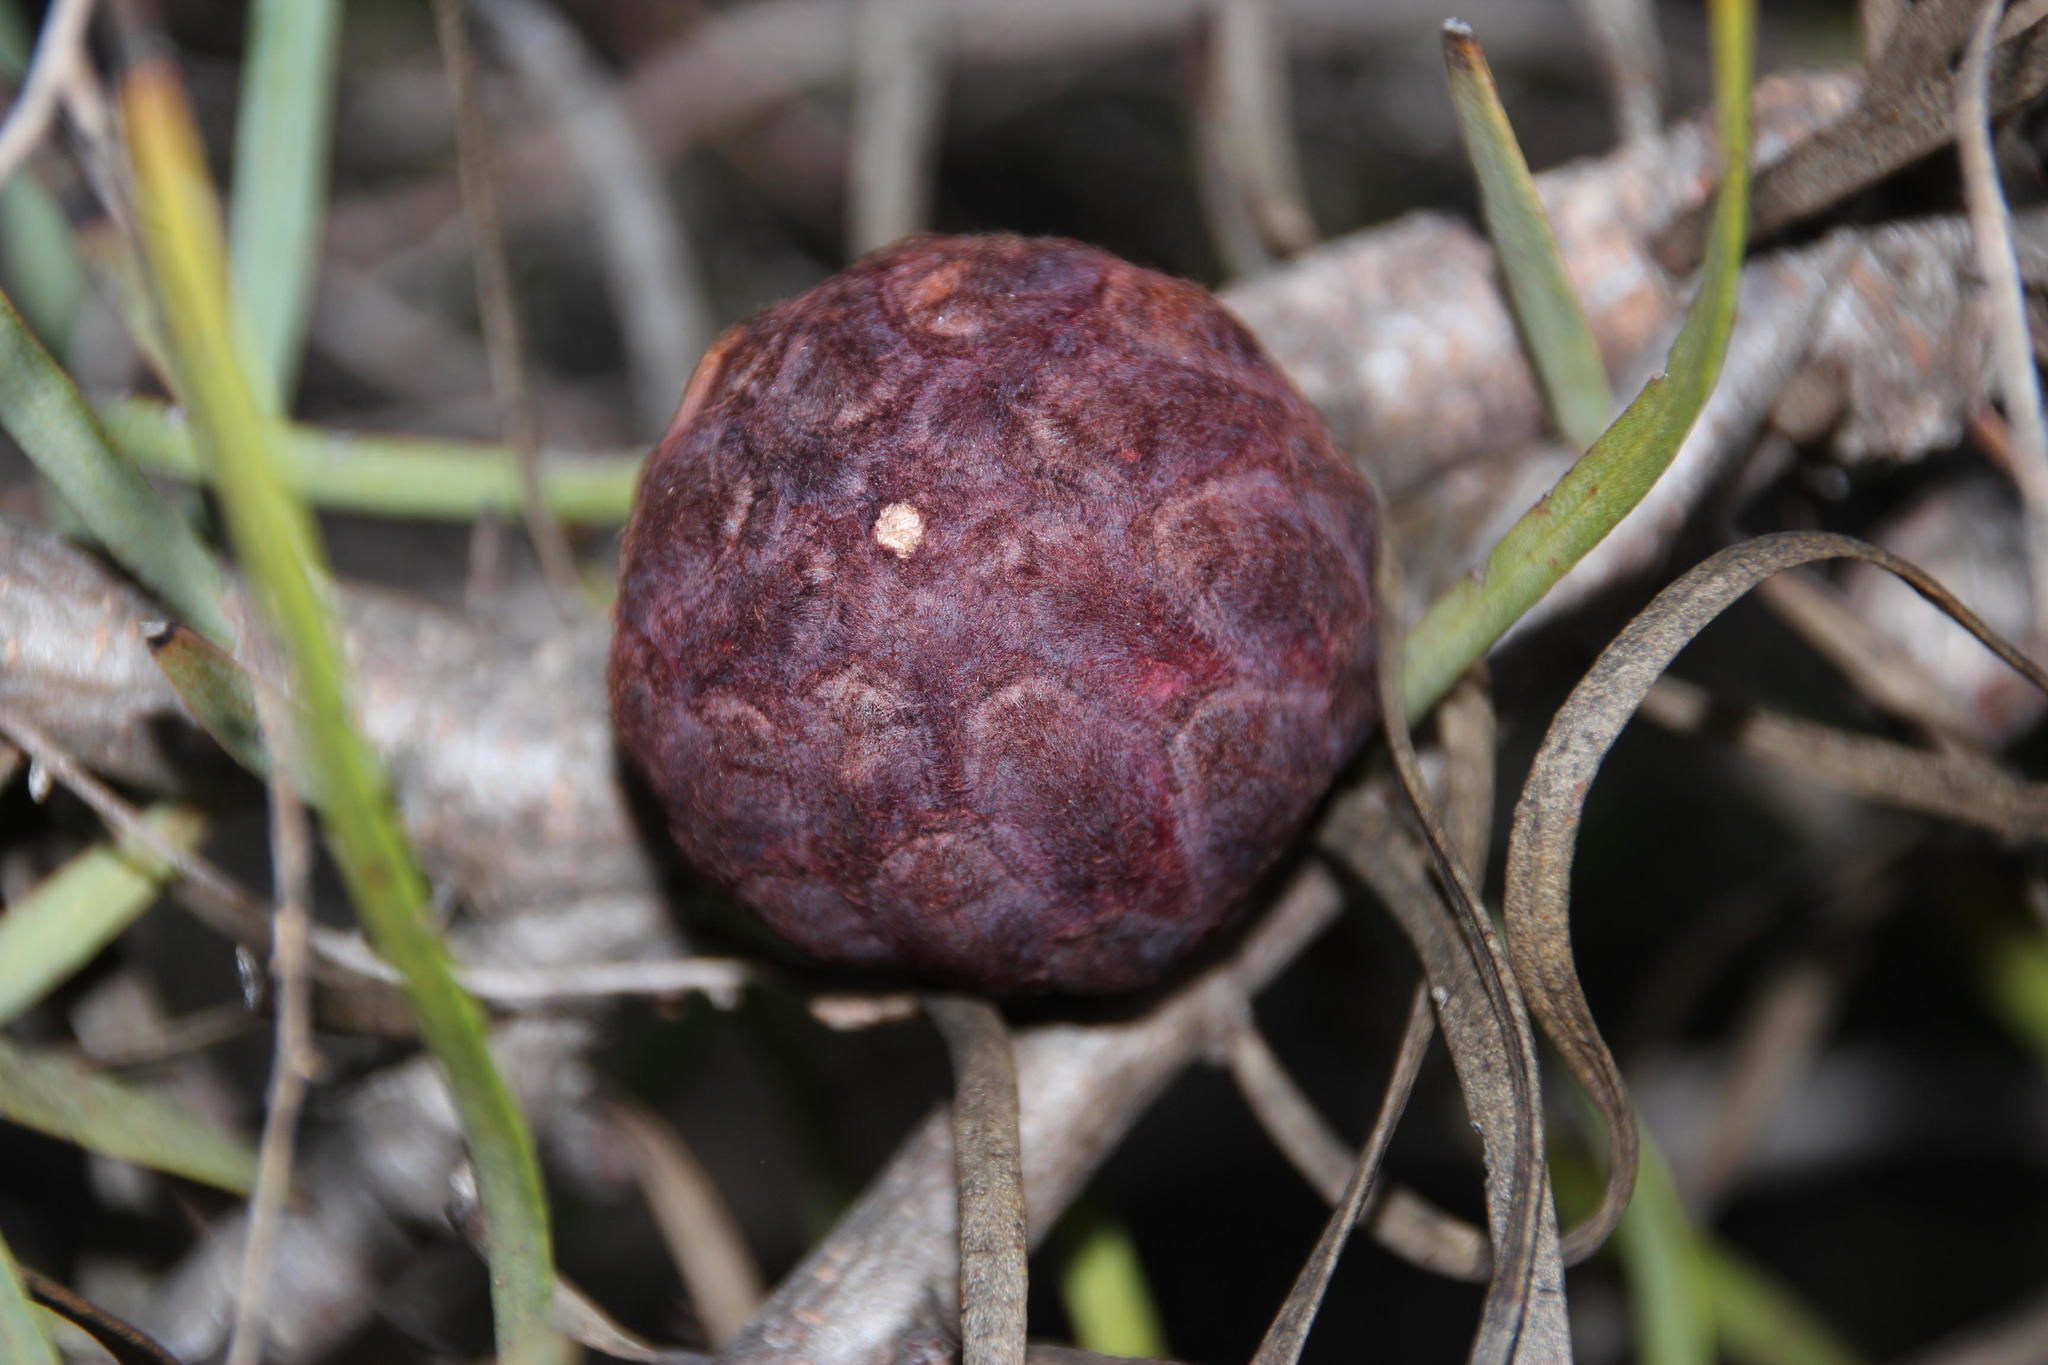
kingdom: Plantae
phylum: Tracheophyta
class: Magnoliopsida
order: Proteales
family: Proteaceae
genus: Protea
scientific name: Protea humiflora
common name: Patent-leaf sugarbush
